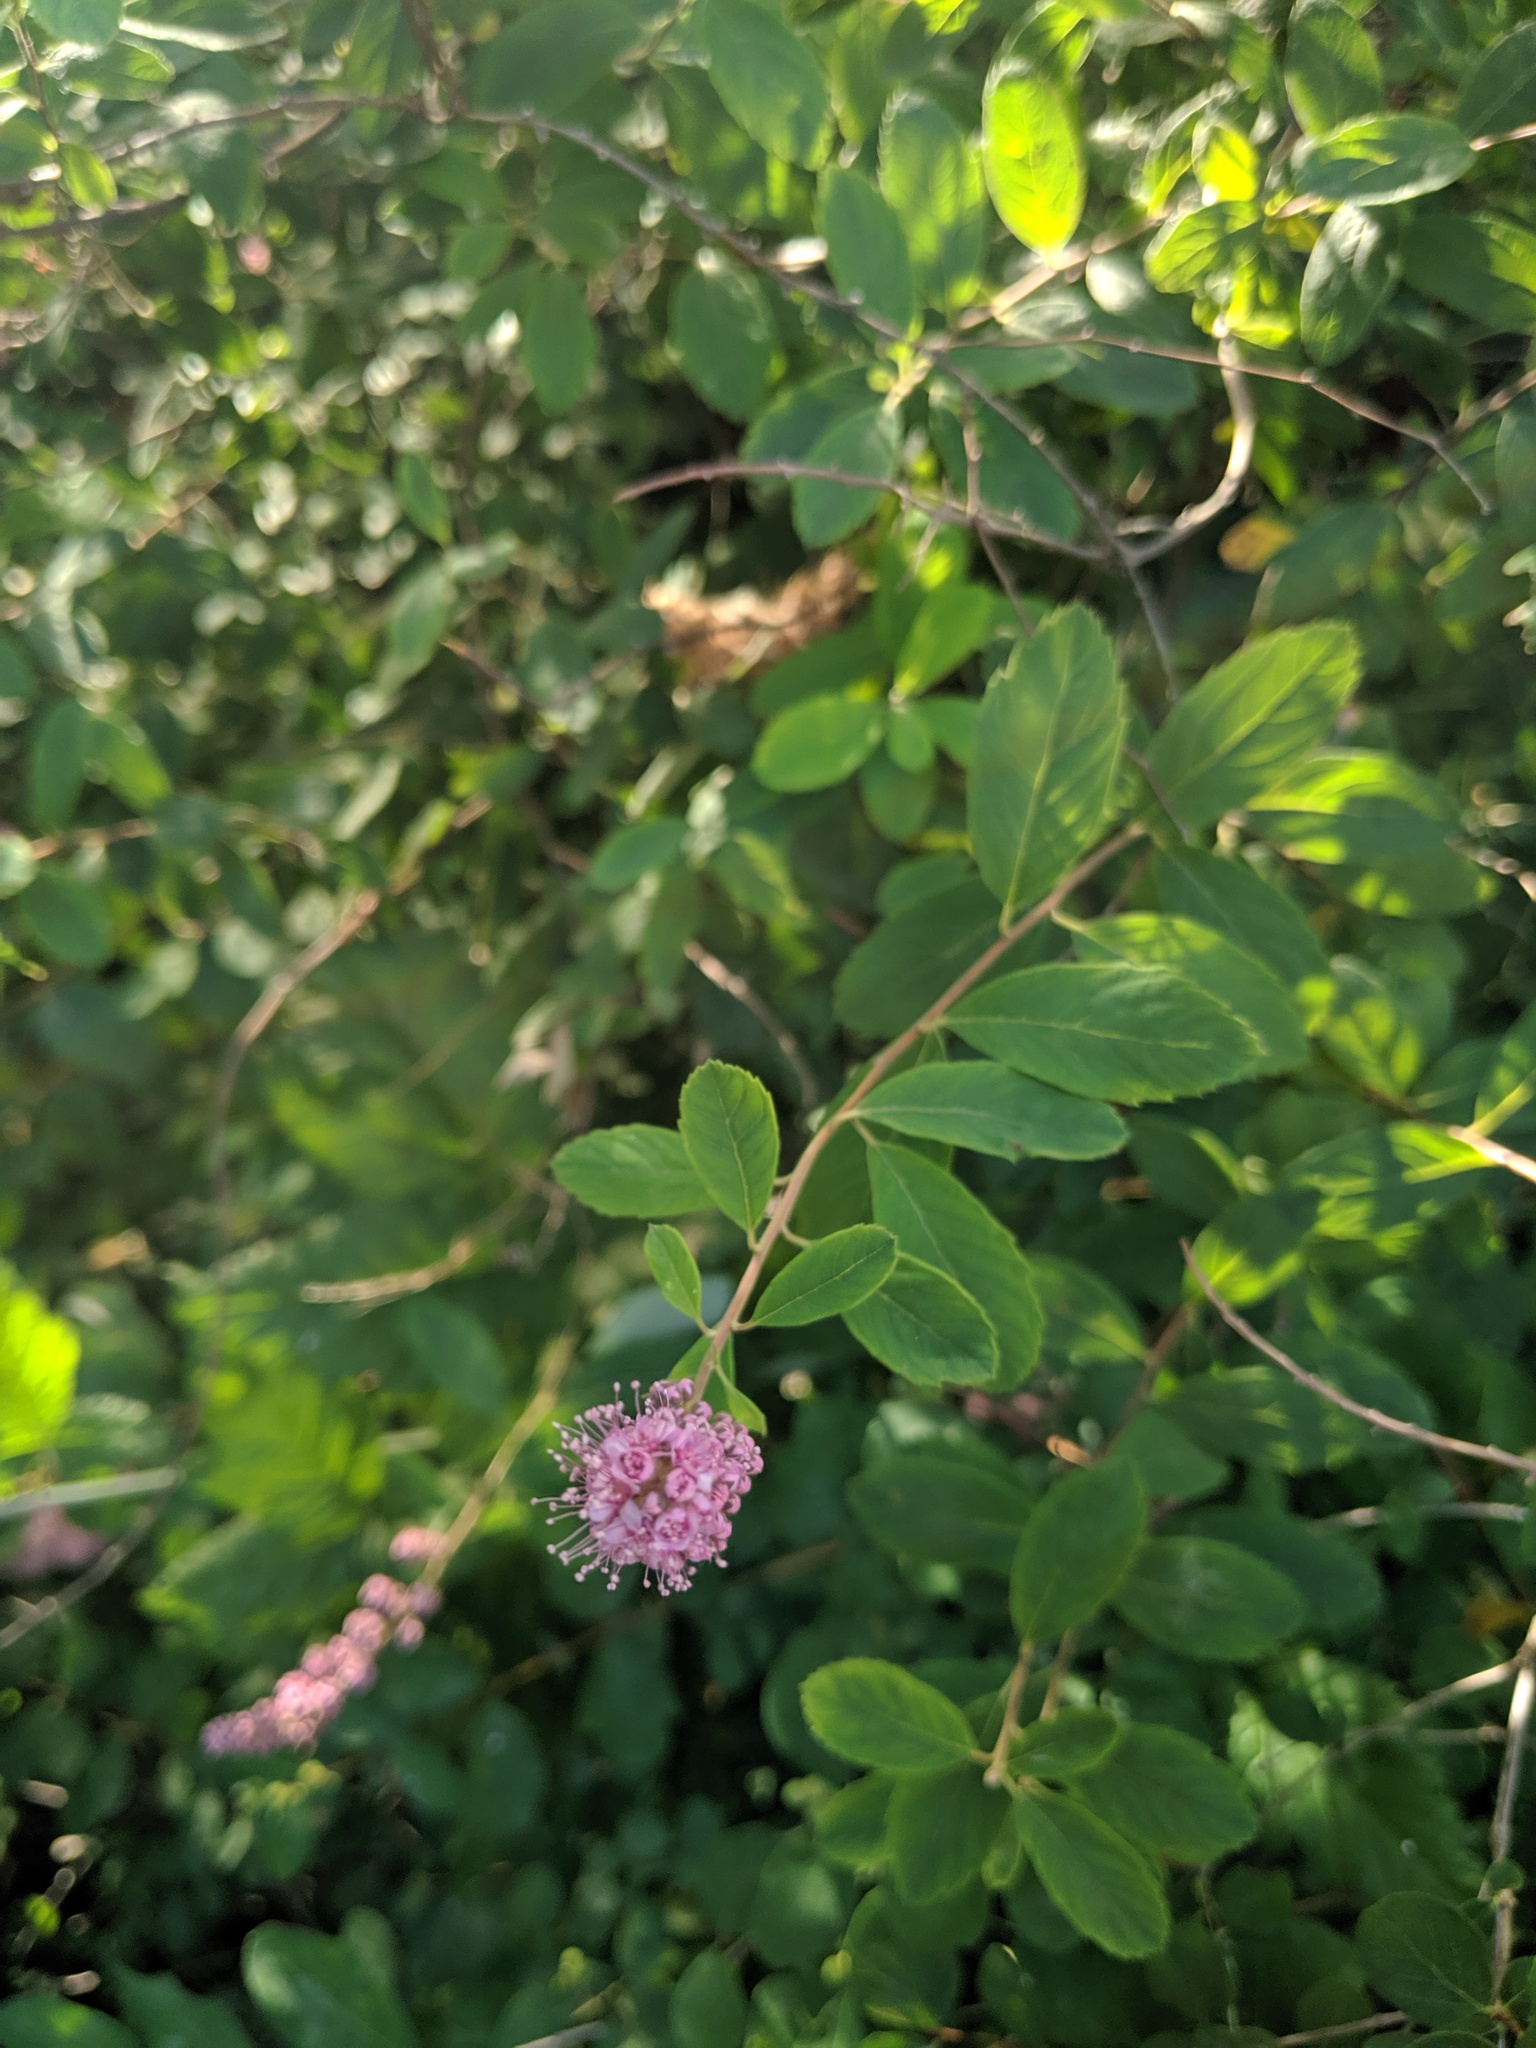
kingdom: Plantae
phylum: Tracheophyta
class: Magnoliopsida
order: Rosales
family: Rosaceae
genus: Spiraea
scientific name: Spiraea douglasii
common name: Steeplebush
